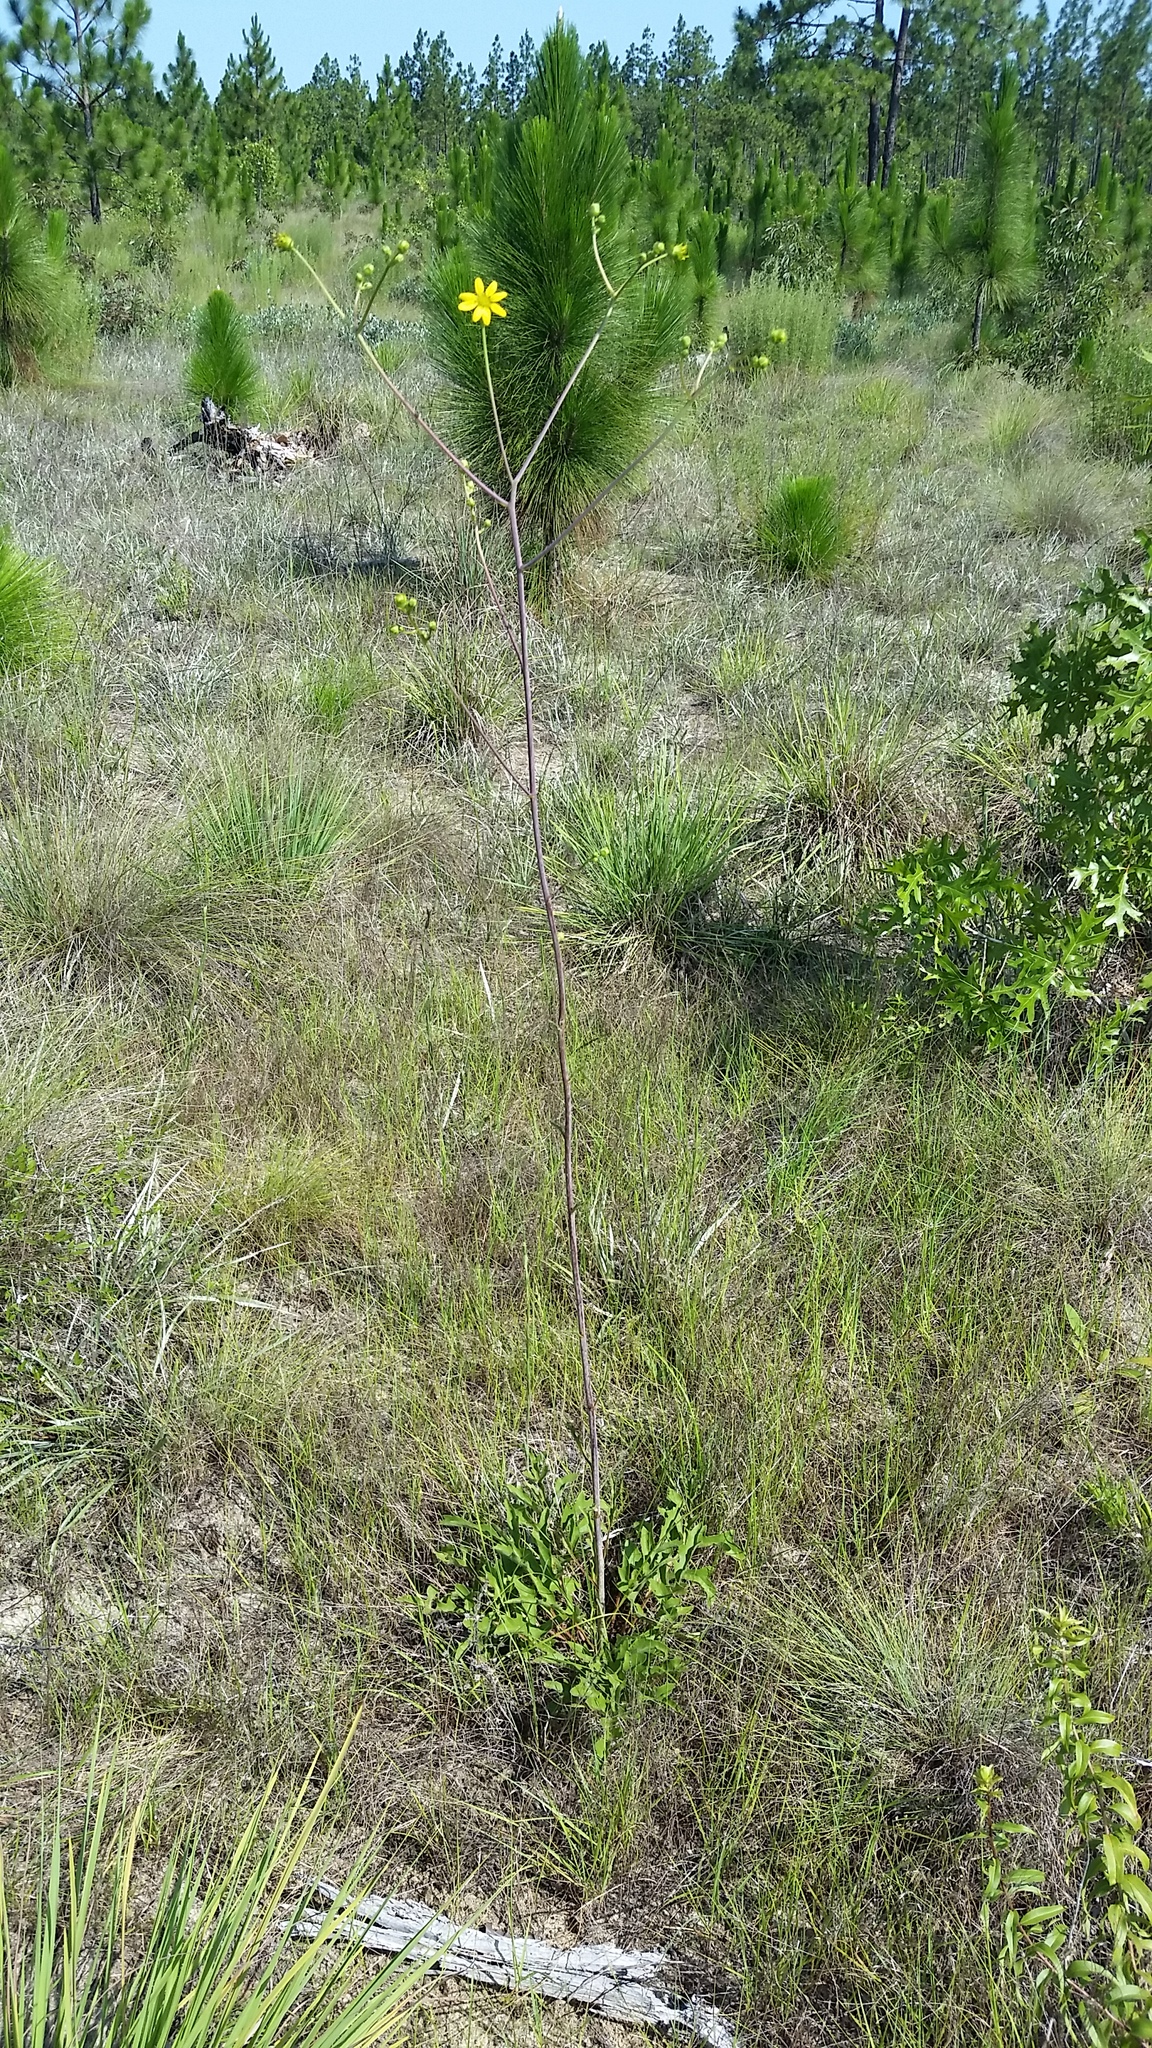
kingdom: Plantae
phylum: Tracheophyta
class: Magnoliopsida
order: Asterales
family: Asteraceae
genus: Silphium
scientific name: Silphium compositum
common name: Lesser basal-leaf rosinweed
